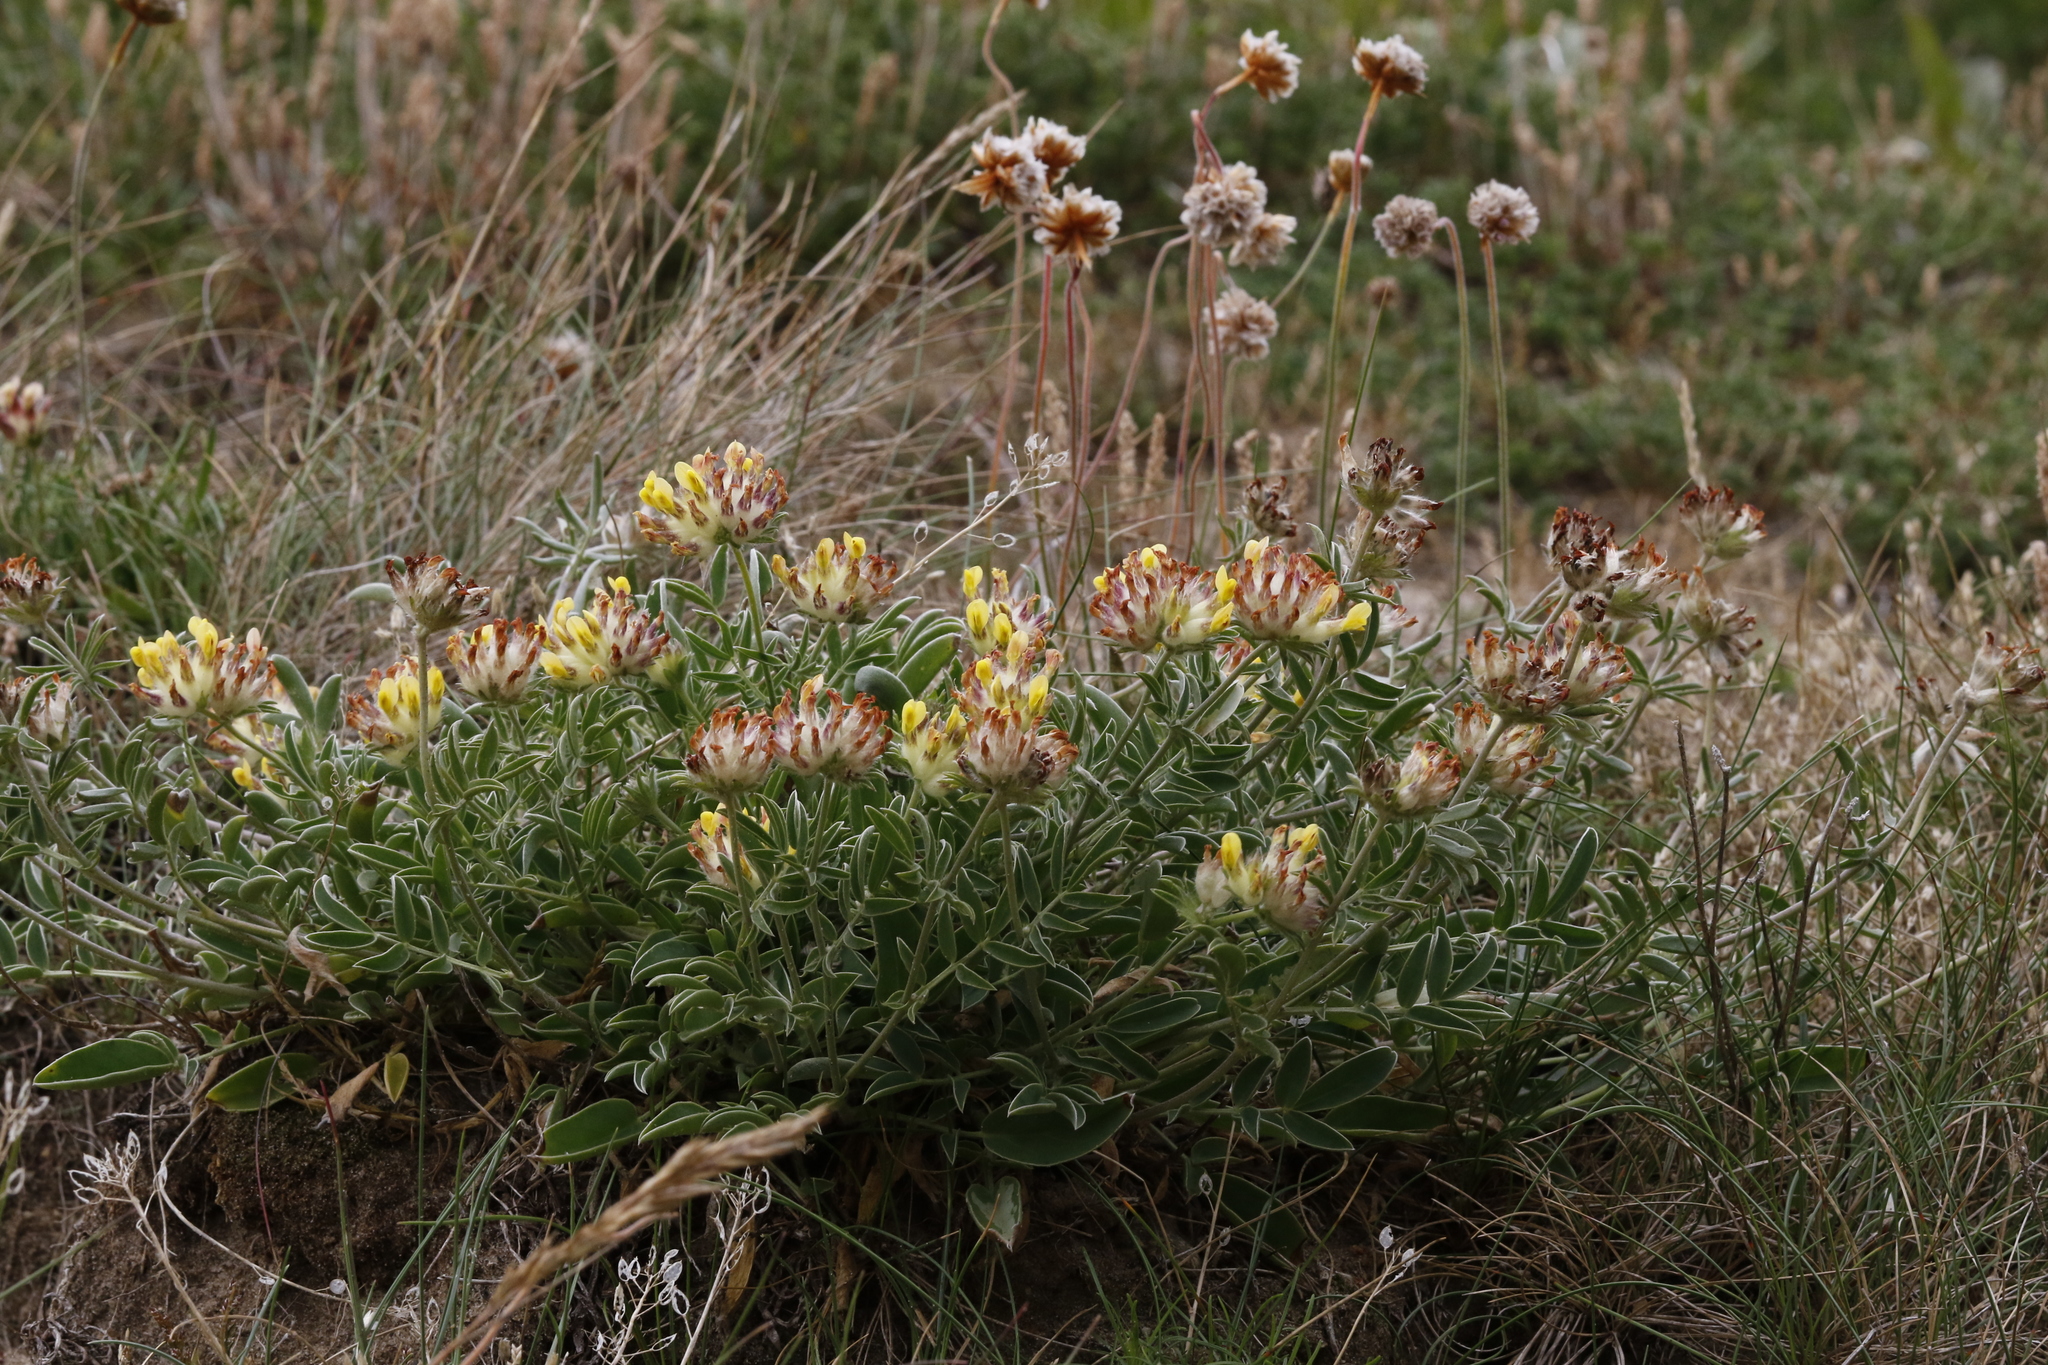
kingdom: Plantae
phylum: Tracheophyta
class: Magnoliopsida
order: Fabales
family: Fabaceae
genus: Anthyllis
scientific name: Anthyllis vulneraria
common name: Kidney vetch
